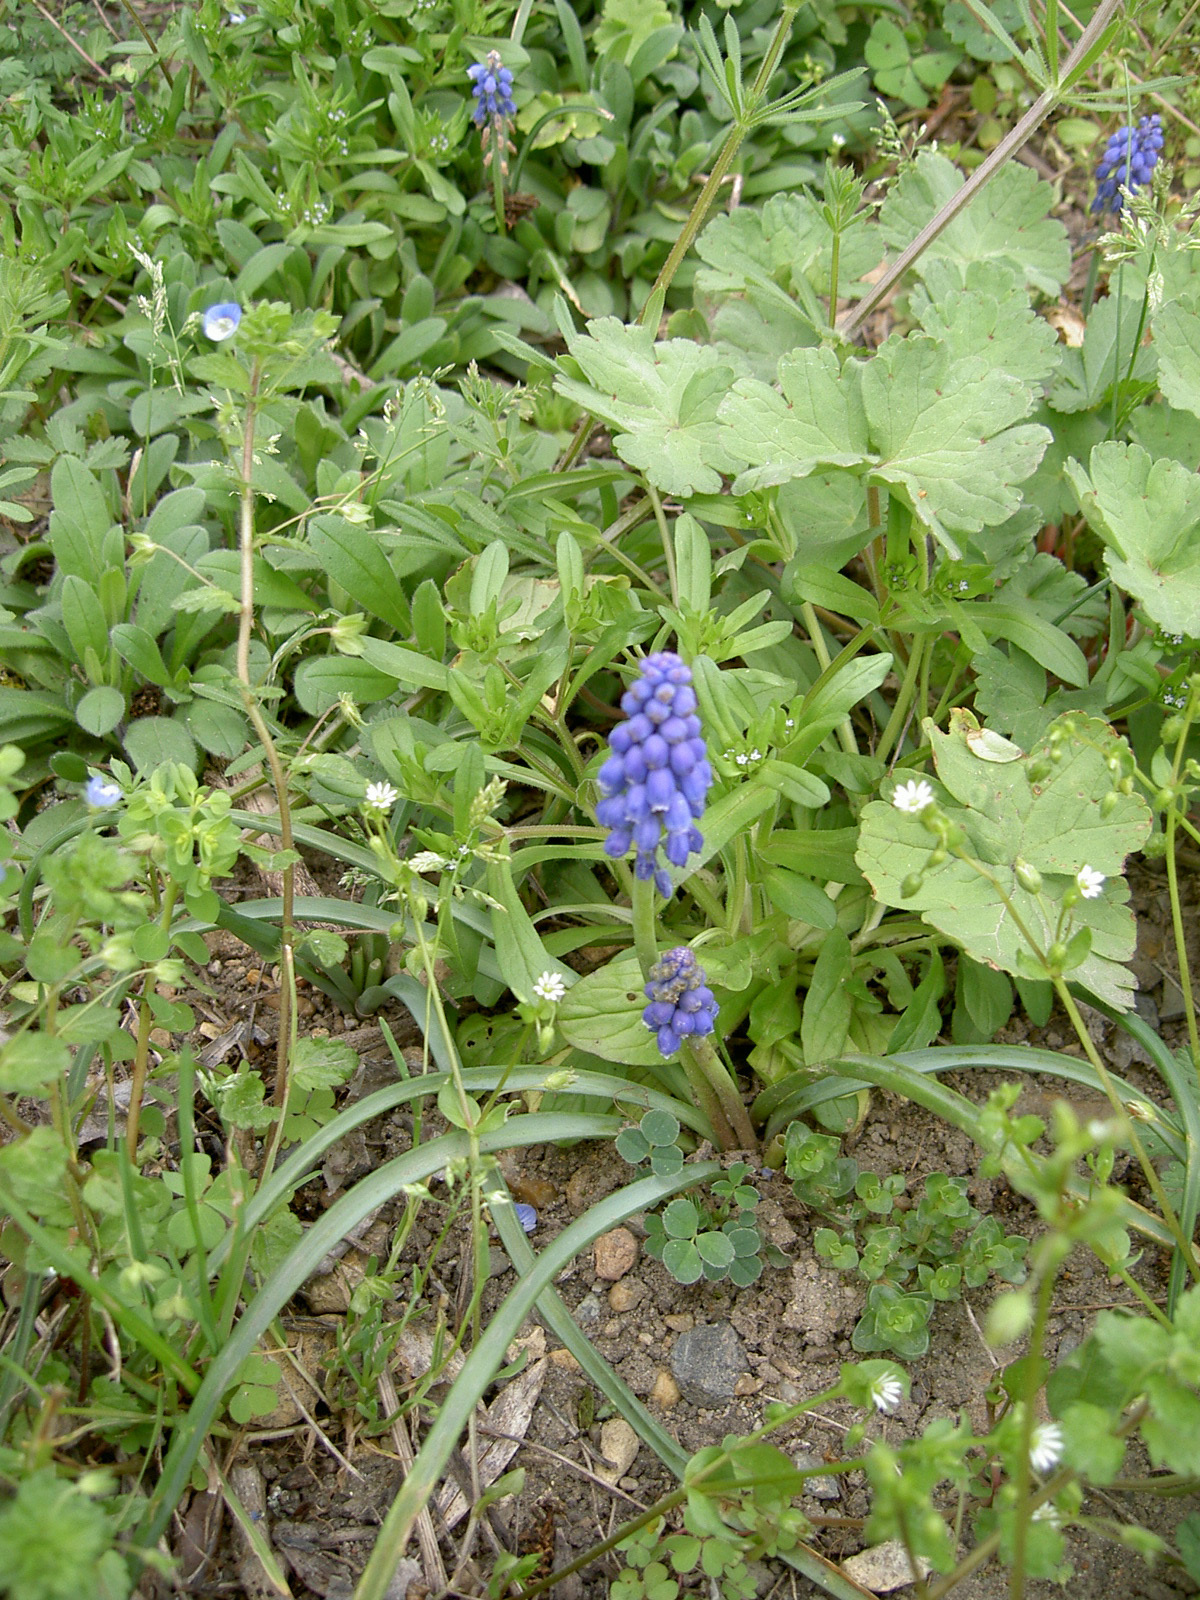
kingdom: Plantae
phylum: Tracheophyta
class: Liliopsida
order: Asparagales
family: Asparagaceae
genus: Muscari
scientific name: Muscari botryoides
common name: Compact grape-hyacinth
